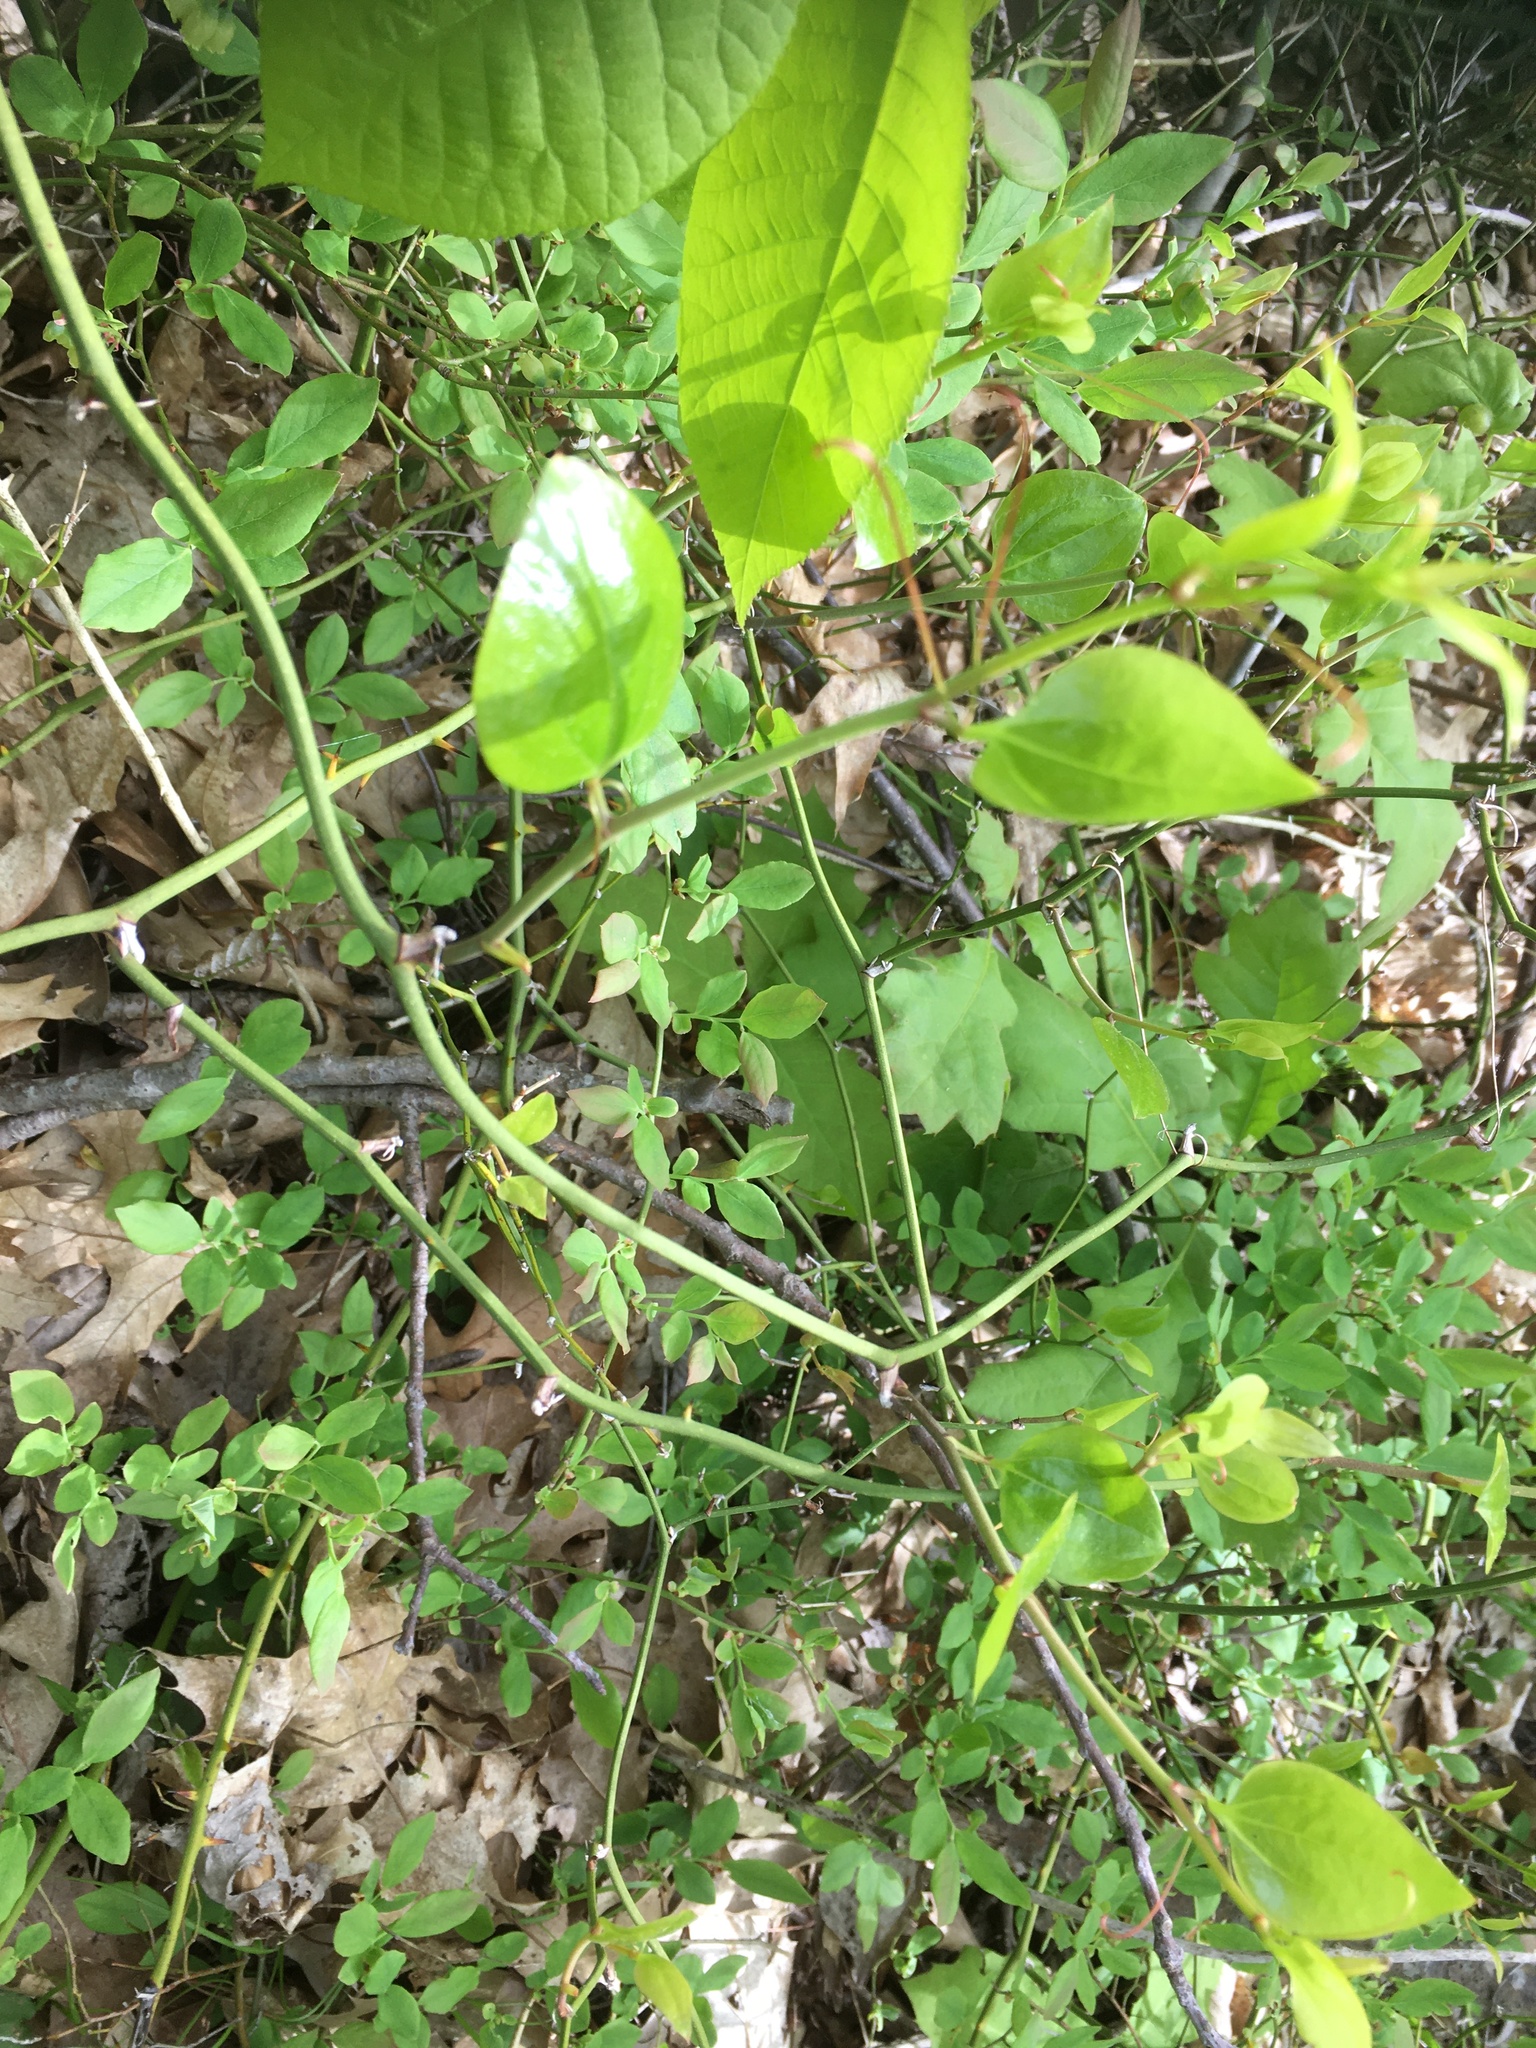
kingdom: Plantae
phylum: Tracheophyta
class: Liliopsida
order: Liliales
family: Smilacaceae
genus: Smilax
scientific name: Smilax rotundifolia
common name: Bullbriar
